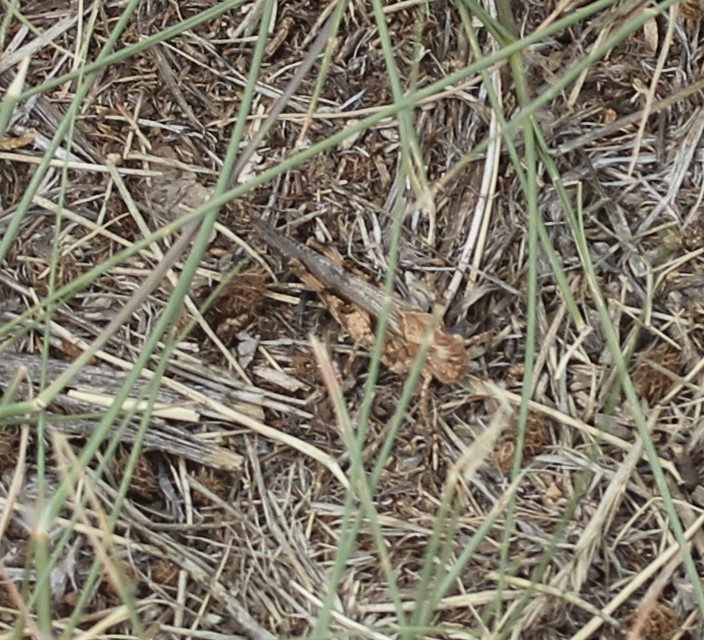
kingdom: Animalia
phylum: Arthropoda
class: Insecta
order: Orthoptera
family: Acrididae
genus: Conozoa
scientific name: Conozoa carinata
